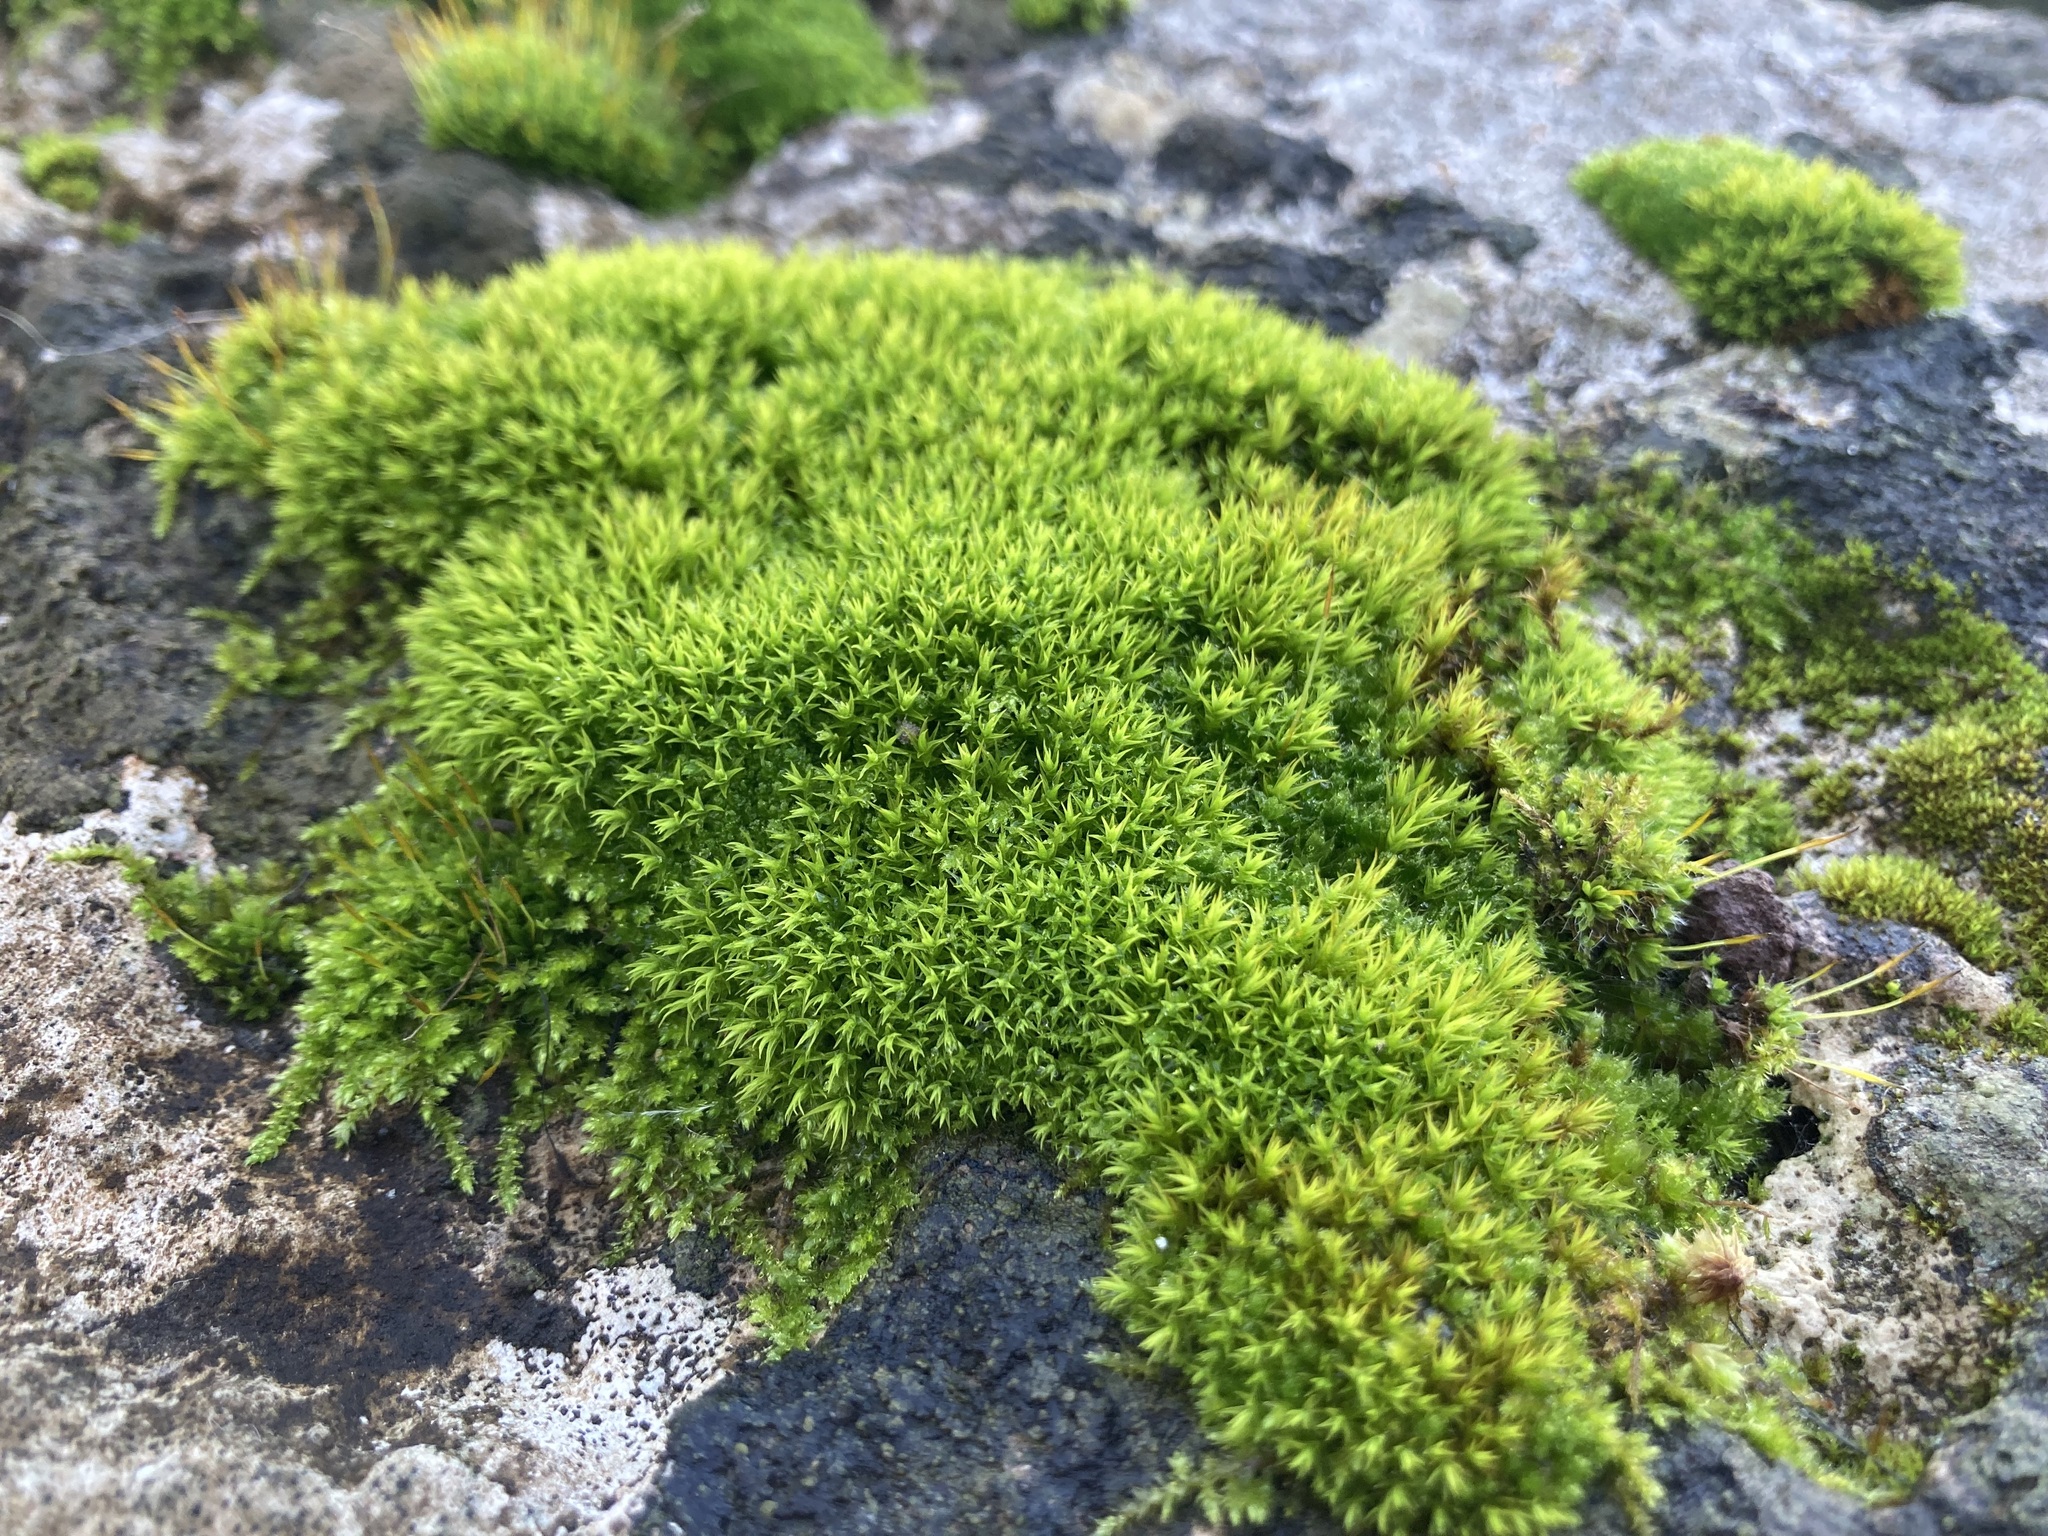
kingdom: Plantae
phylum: Bryophyta
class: Bryopsida
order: Pottiales
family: Pottiaceae
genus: Tortula
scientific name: Tortula muralis
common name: Wall screw-moss
